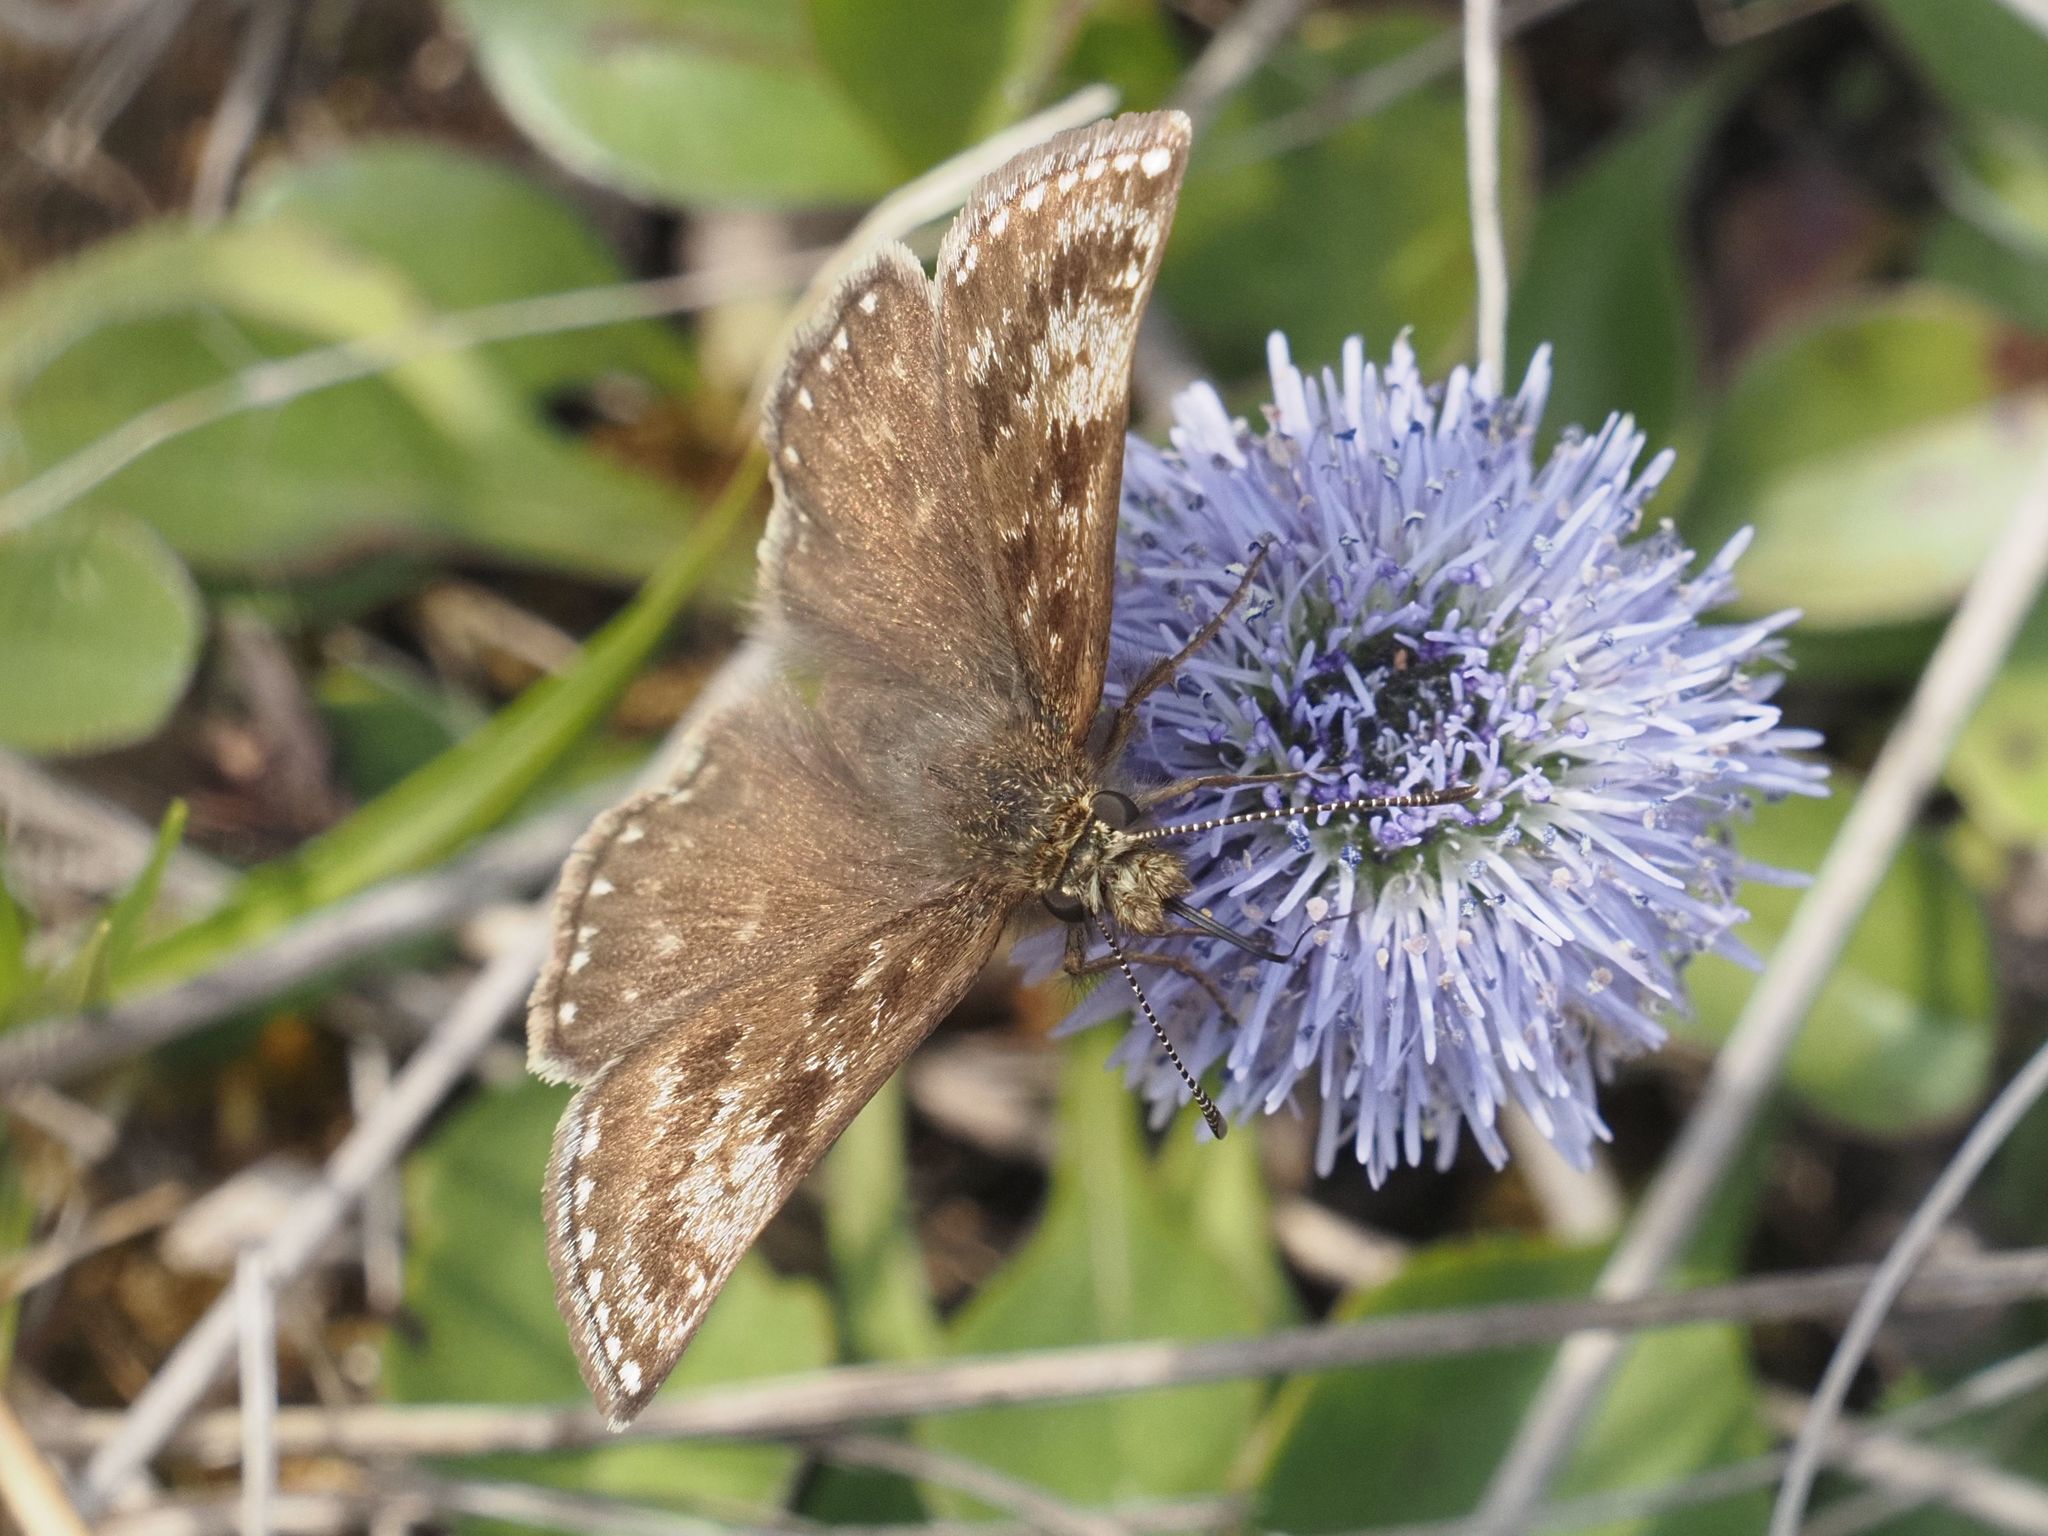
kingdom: Animalia
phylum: Arthropoda
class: Insecta
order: Lepidoptera
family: Hesperiidae
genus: Erynnis
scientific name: Erynnis tages
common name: Dingy skipper
